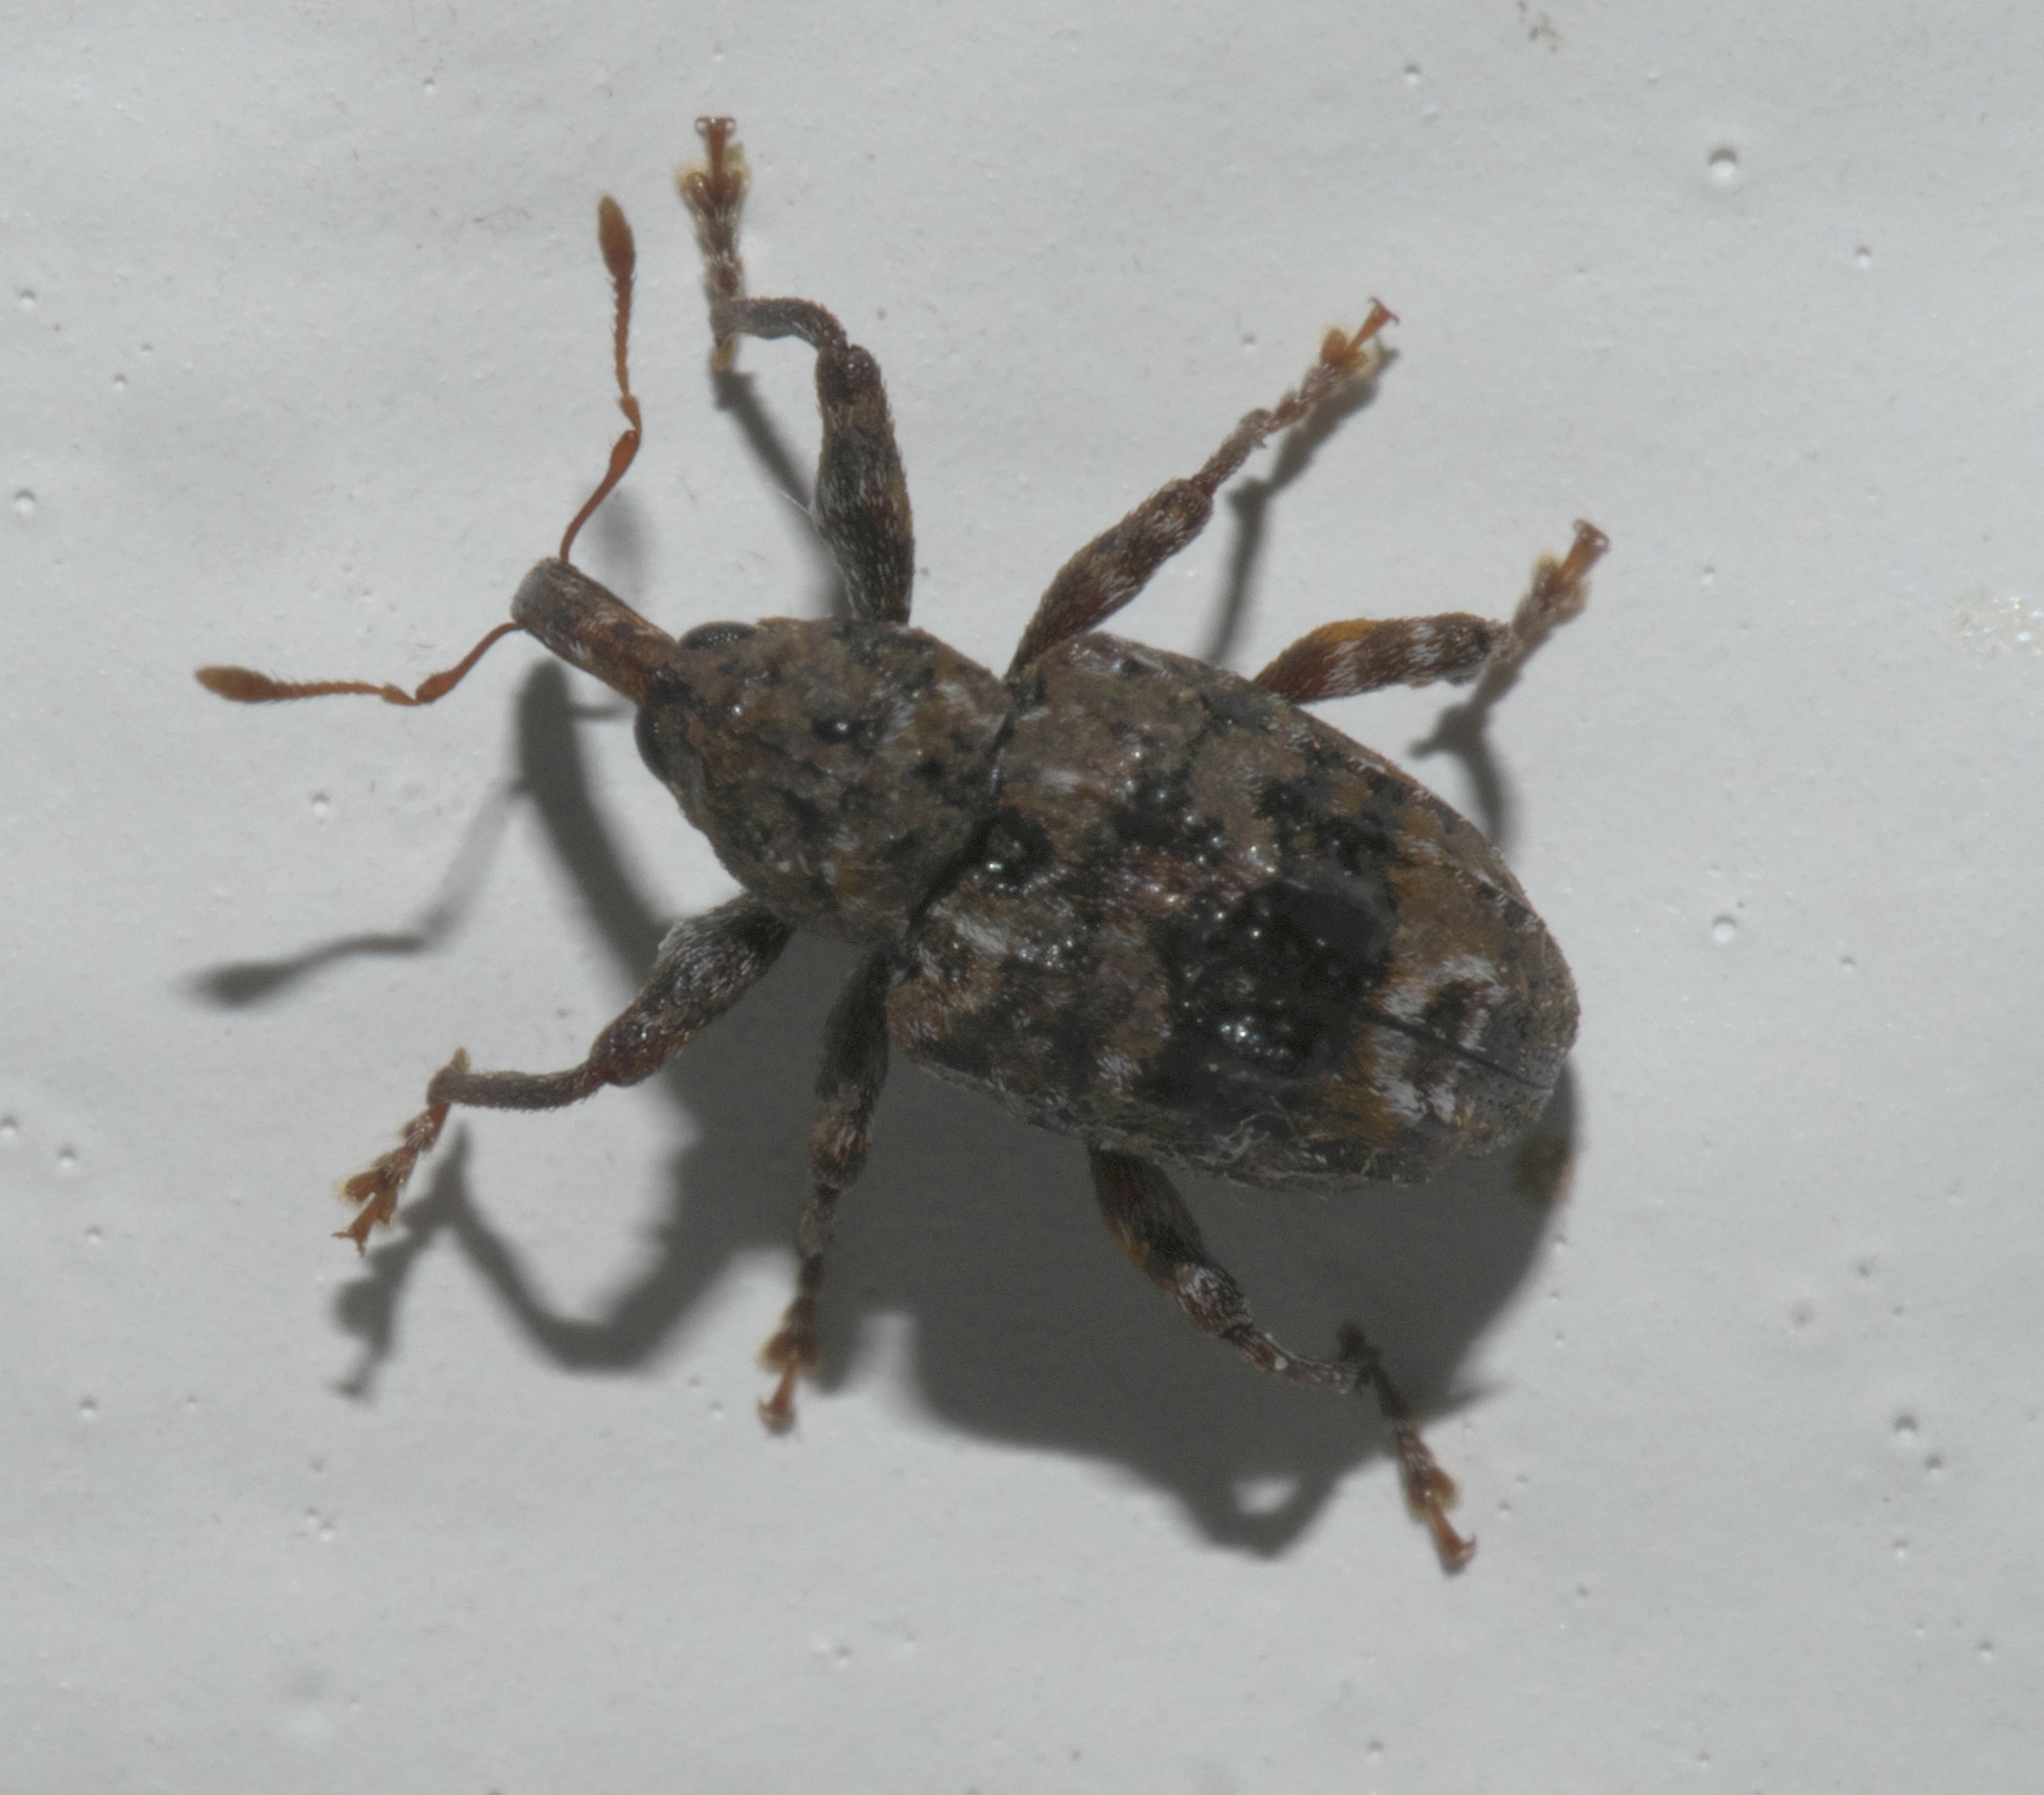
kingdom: Animalia
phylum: Arthropoda
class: Insecta
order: Coleoptera
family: Curculionidae
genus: Conotrachelus
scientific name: Conotrachelus nenuphar
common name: Plum curculio
